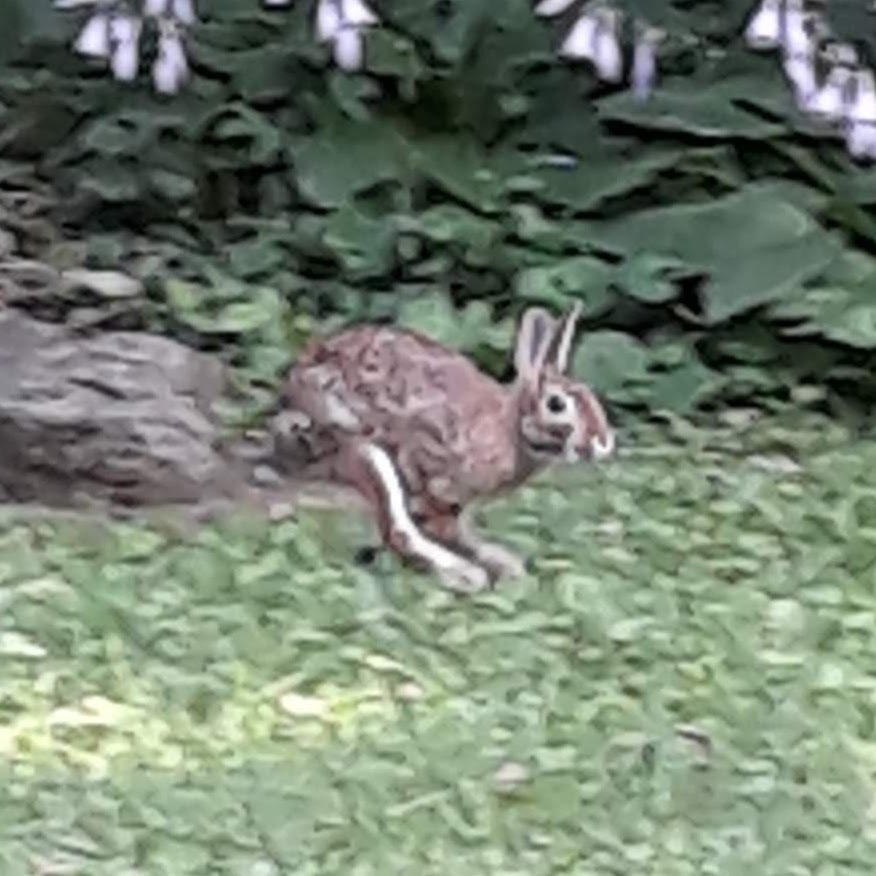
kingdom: Animalia
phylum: Chordata
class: Mammalia
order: Lagomorpha
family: Leporidae
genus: Sylvilagus
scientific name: Sylvilagus floridanus
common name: Eastern cottontail
